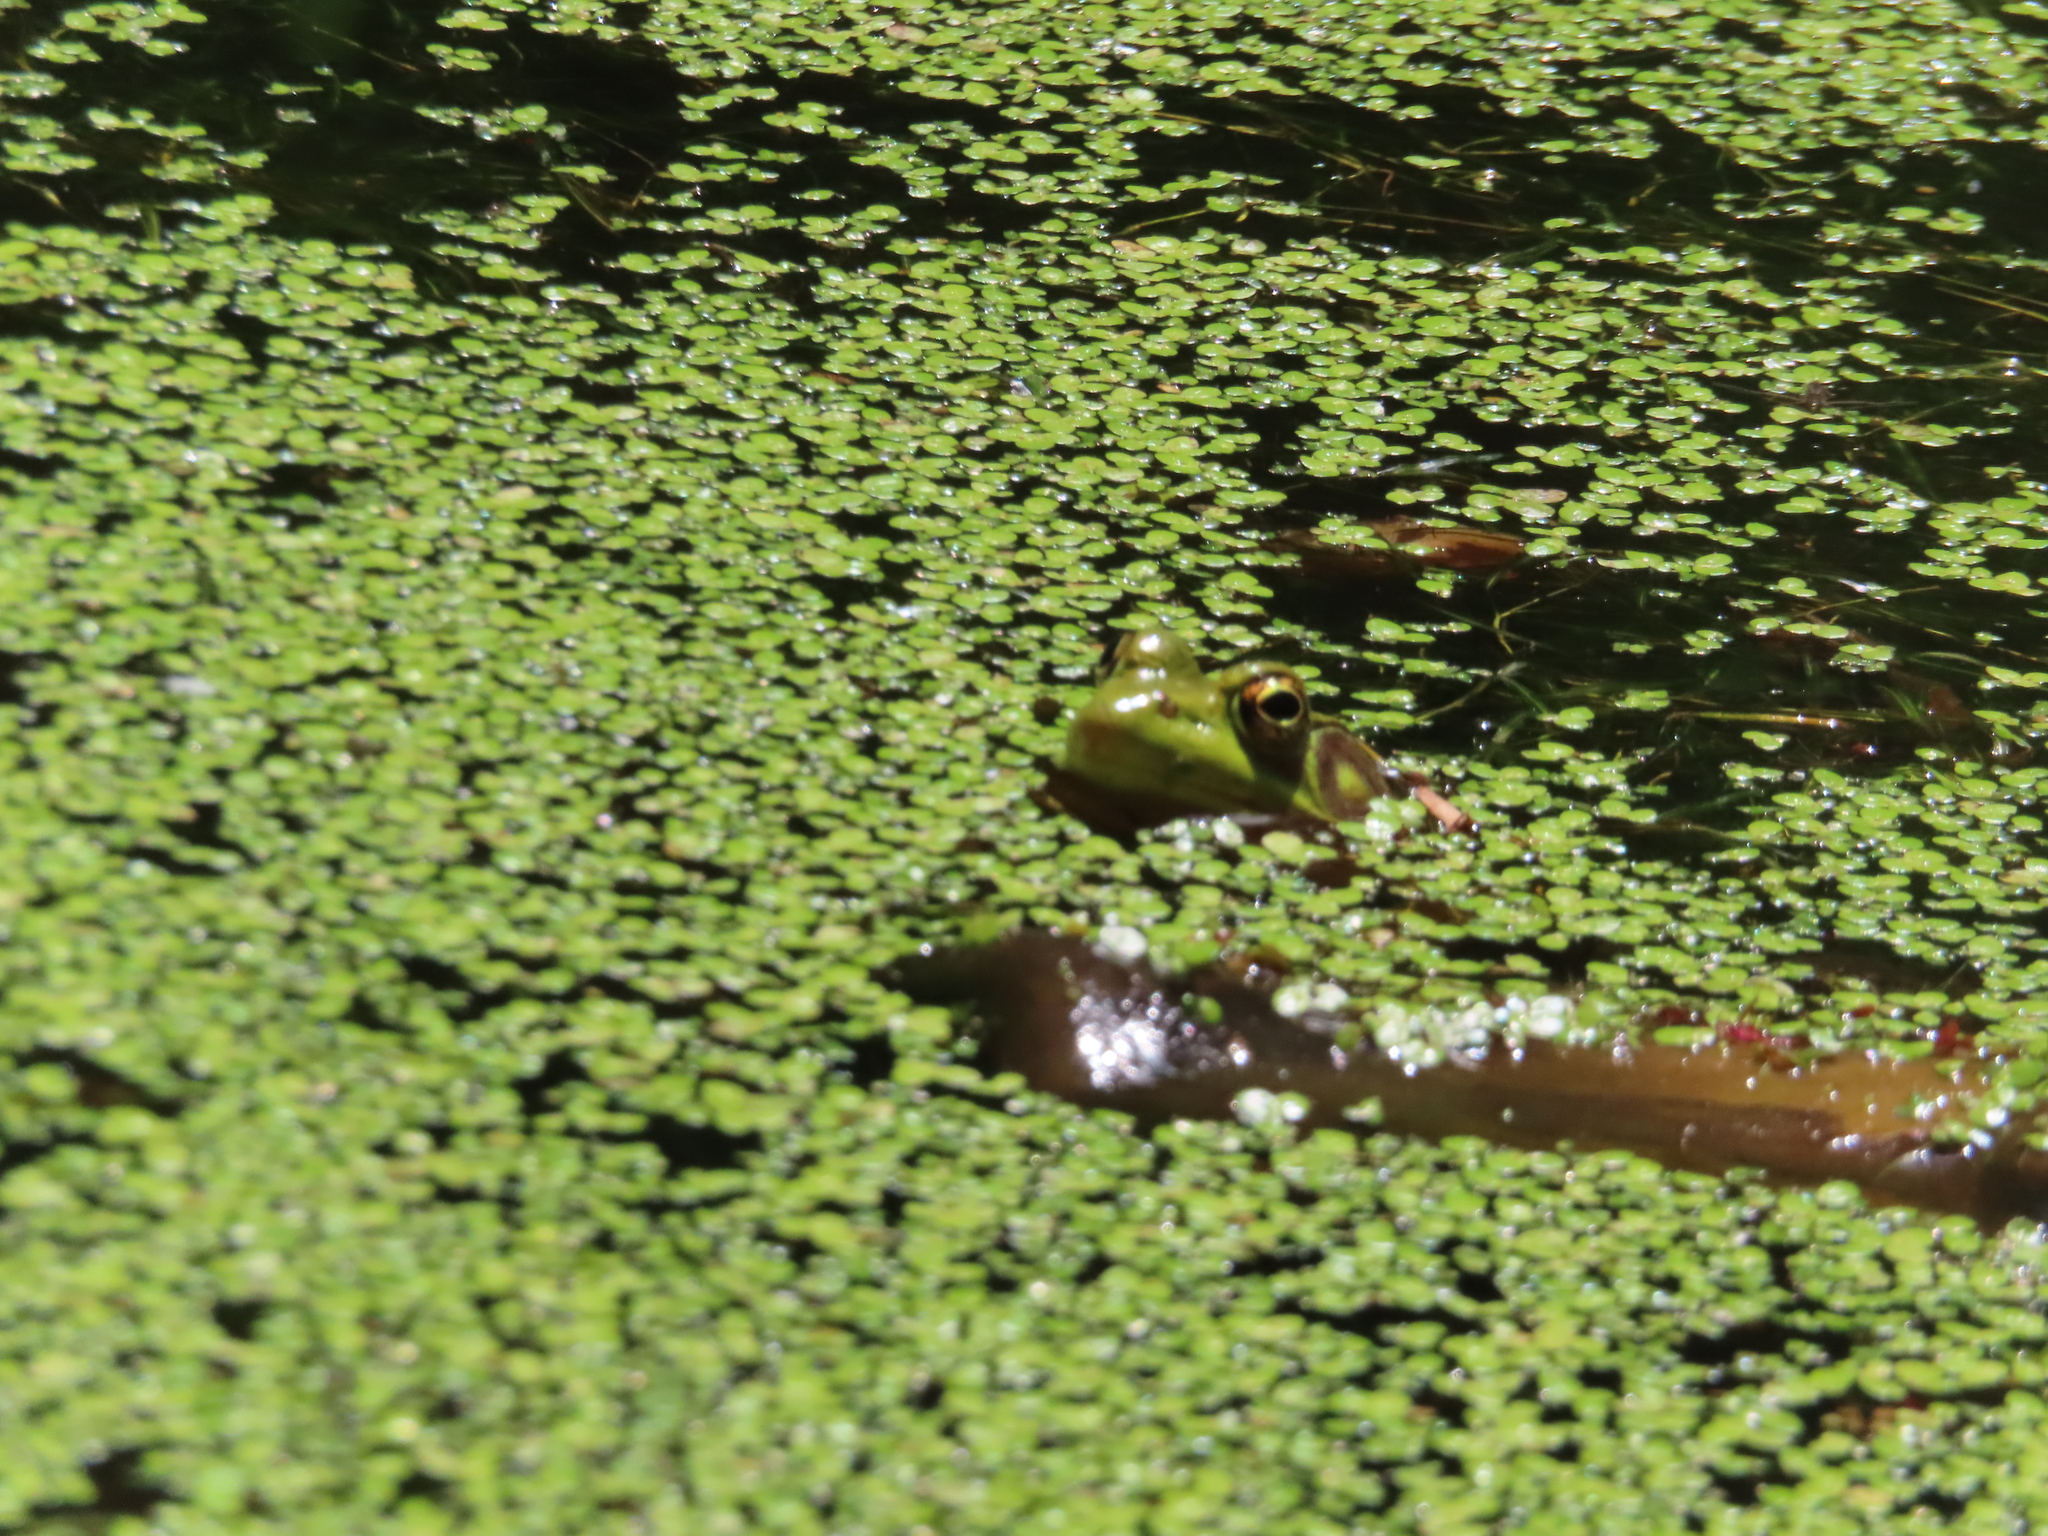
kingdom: Animalia
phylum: Chordata
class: Amphibia
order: Anura
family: Ranidae
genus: Lithobates
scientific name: Lithobates clamitans
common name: Green frog
